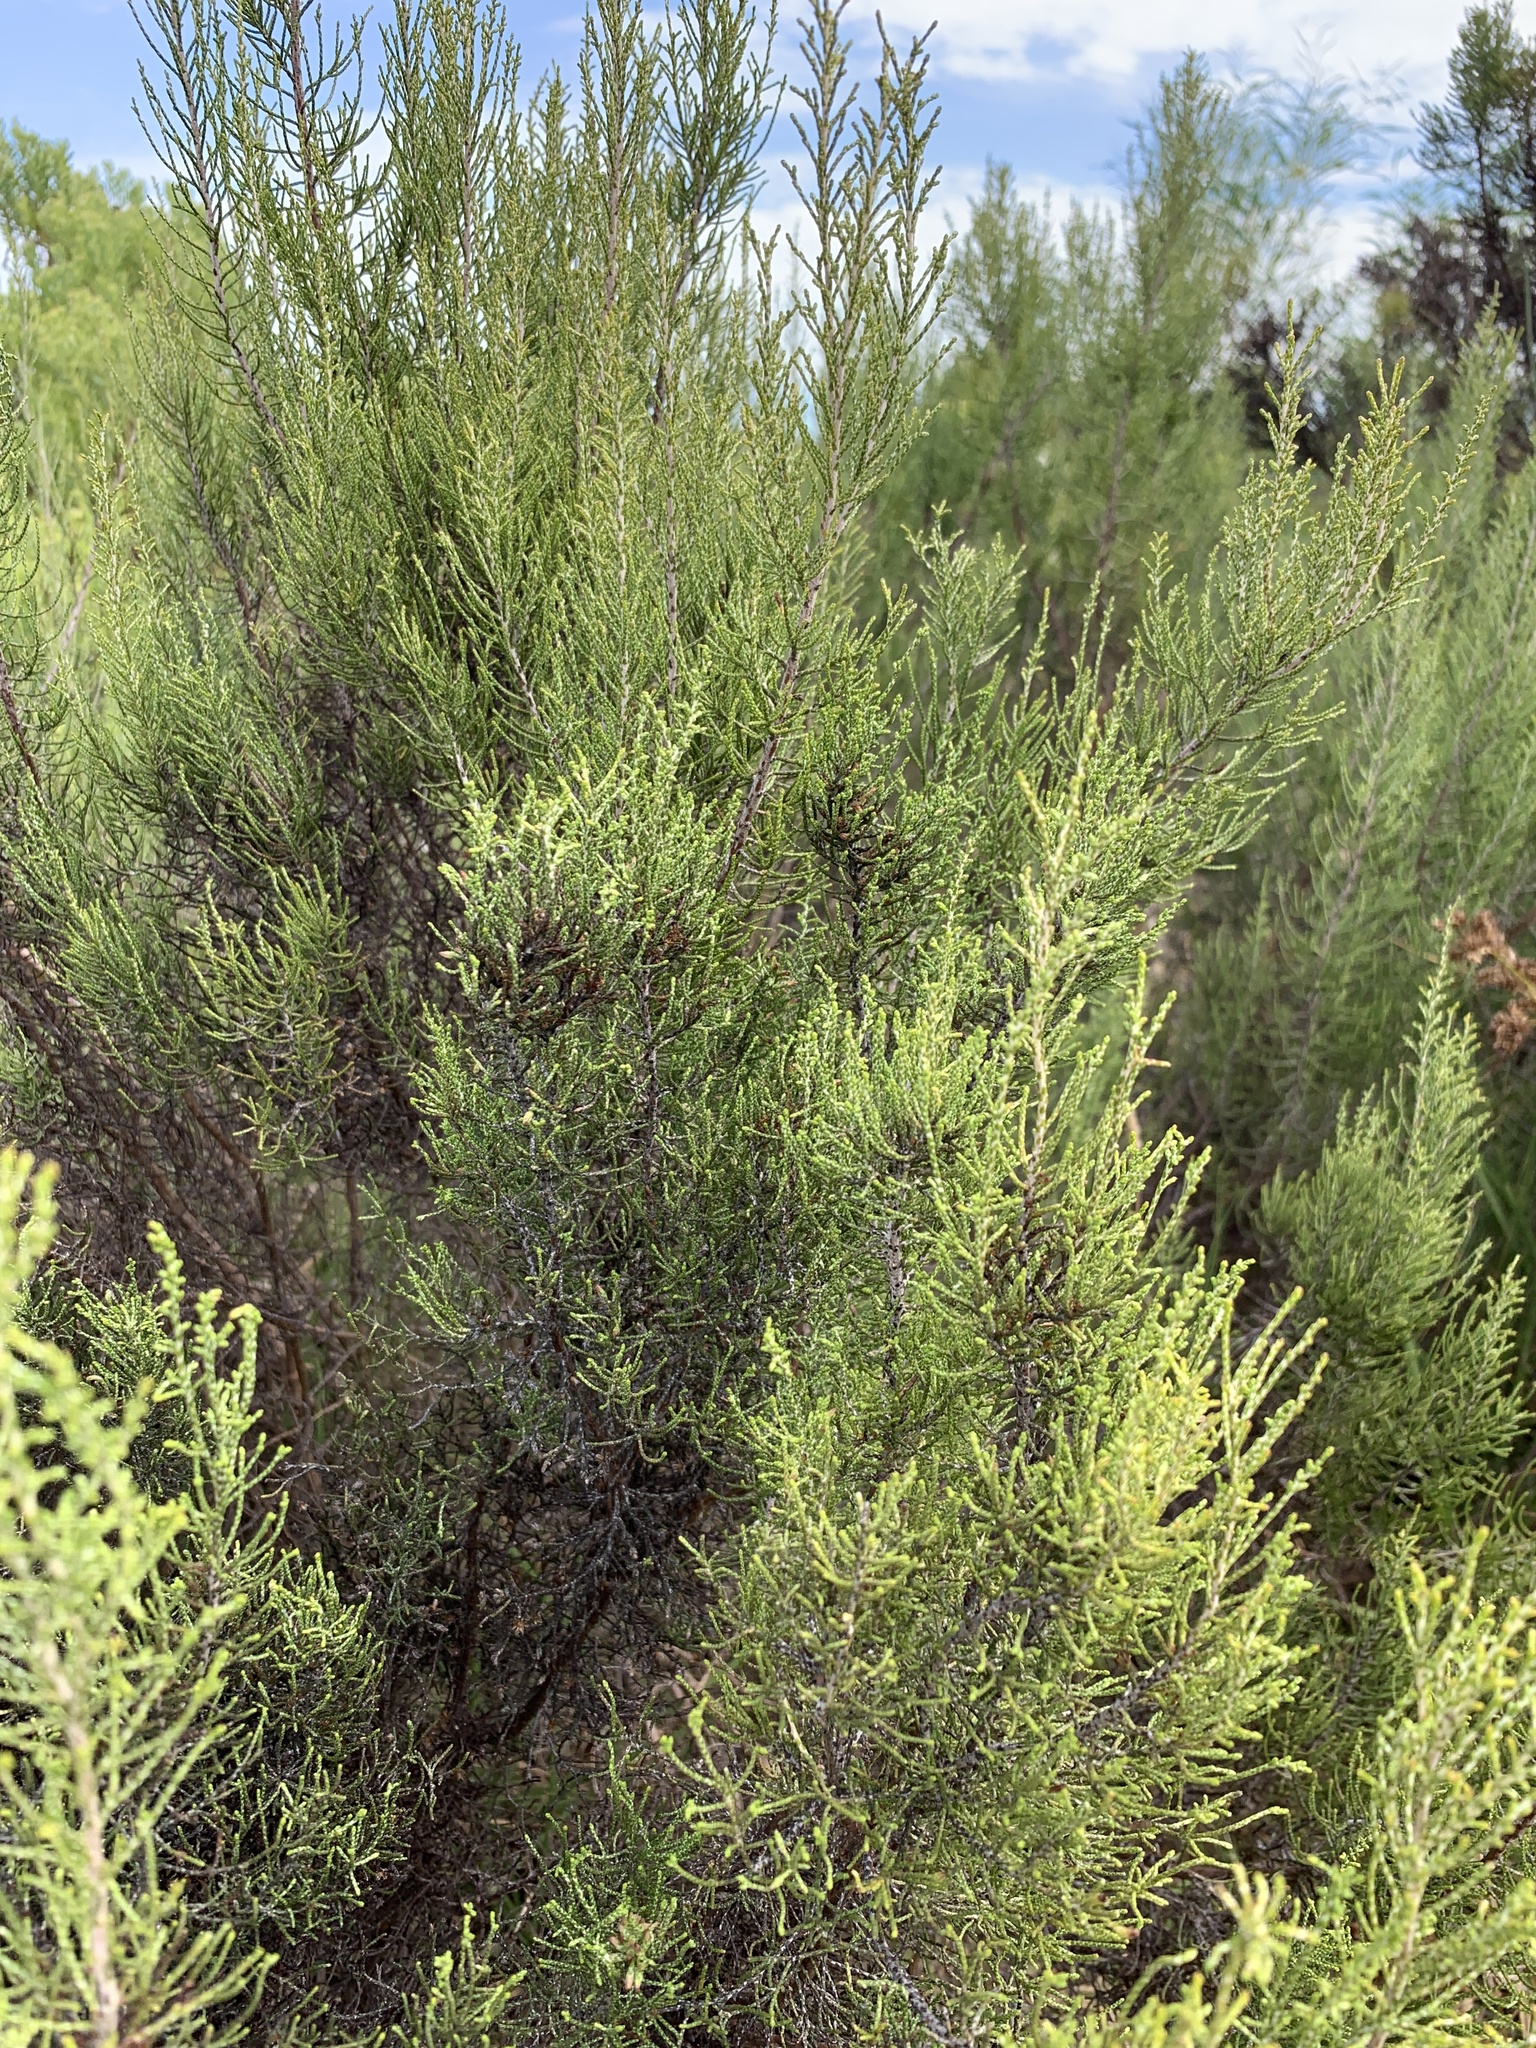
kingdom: Plantae
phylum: Tracheophyta
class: Magnoliopsida
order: Asterales
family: Asteraceae
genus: Dicerothamnus
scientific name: Dicerothamnus rhinocerotis
